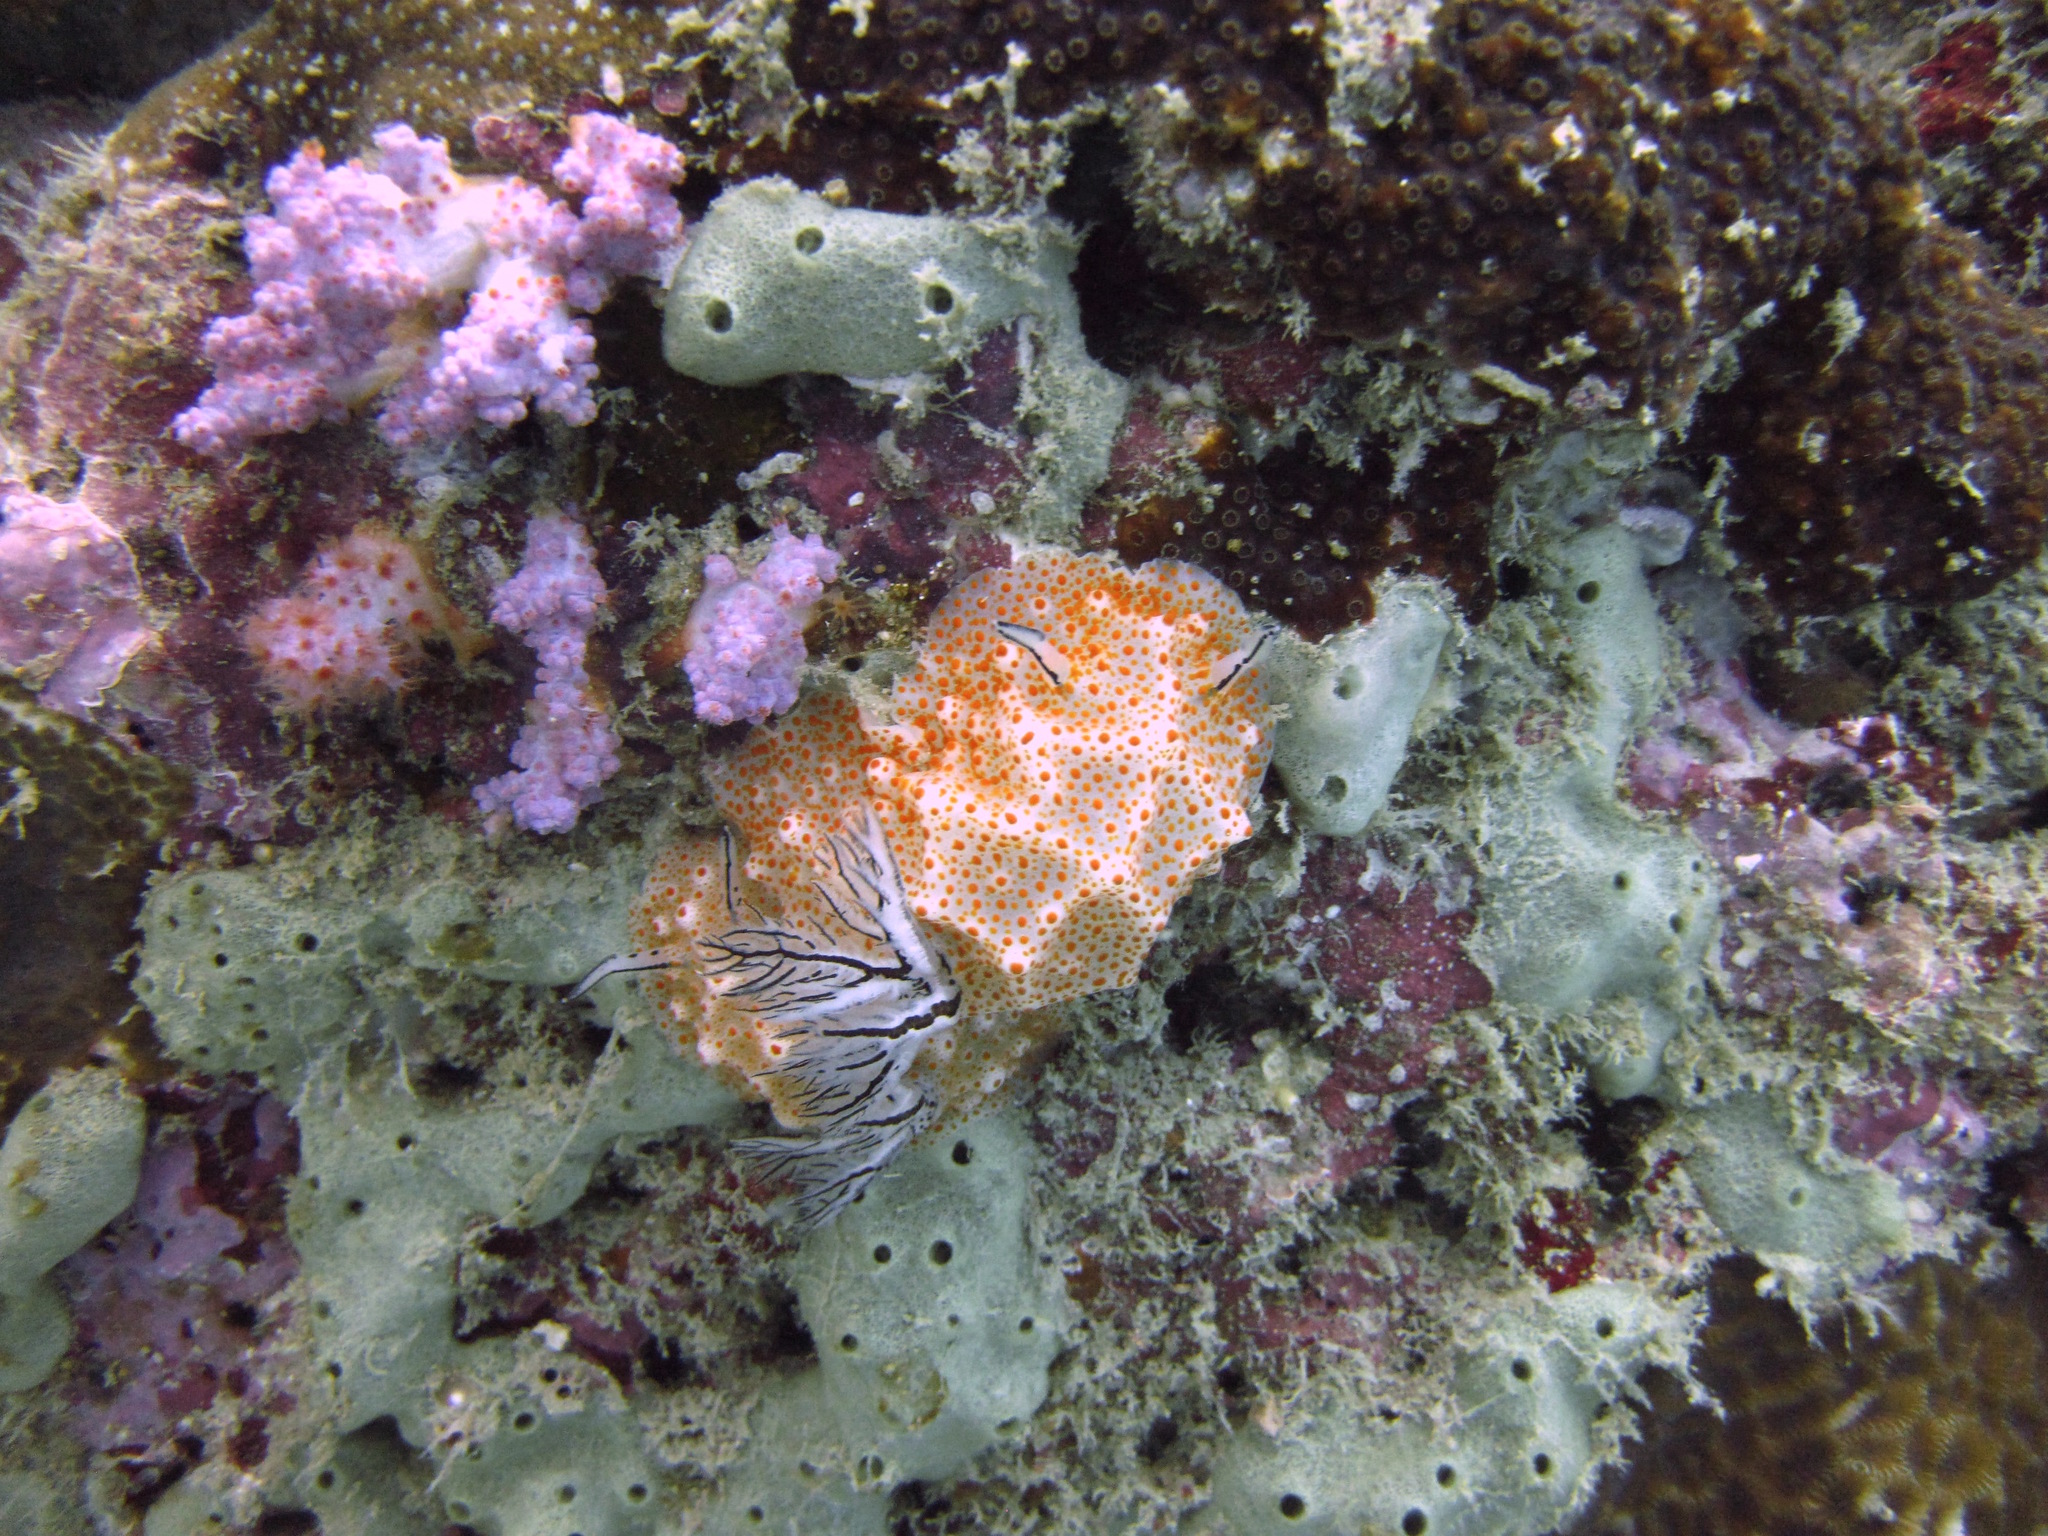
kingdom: Animalia
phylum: Mollusca
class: Gastropoda
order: Nudibranchia
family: Discodorididae
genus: Halgerda
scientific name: Halgerda stricklandi
